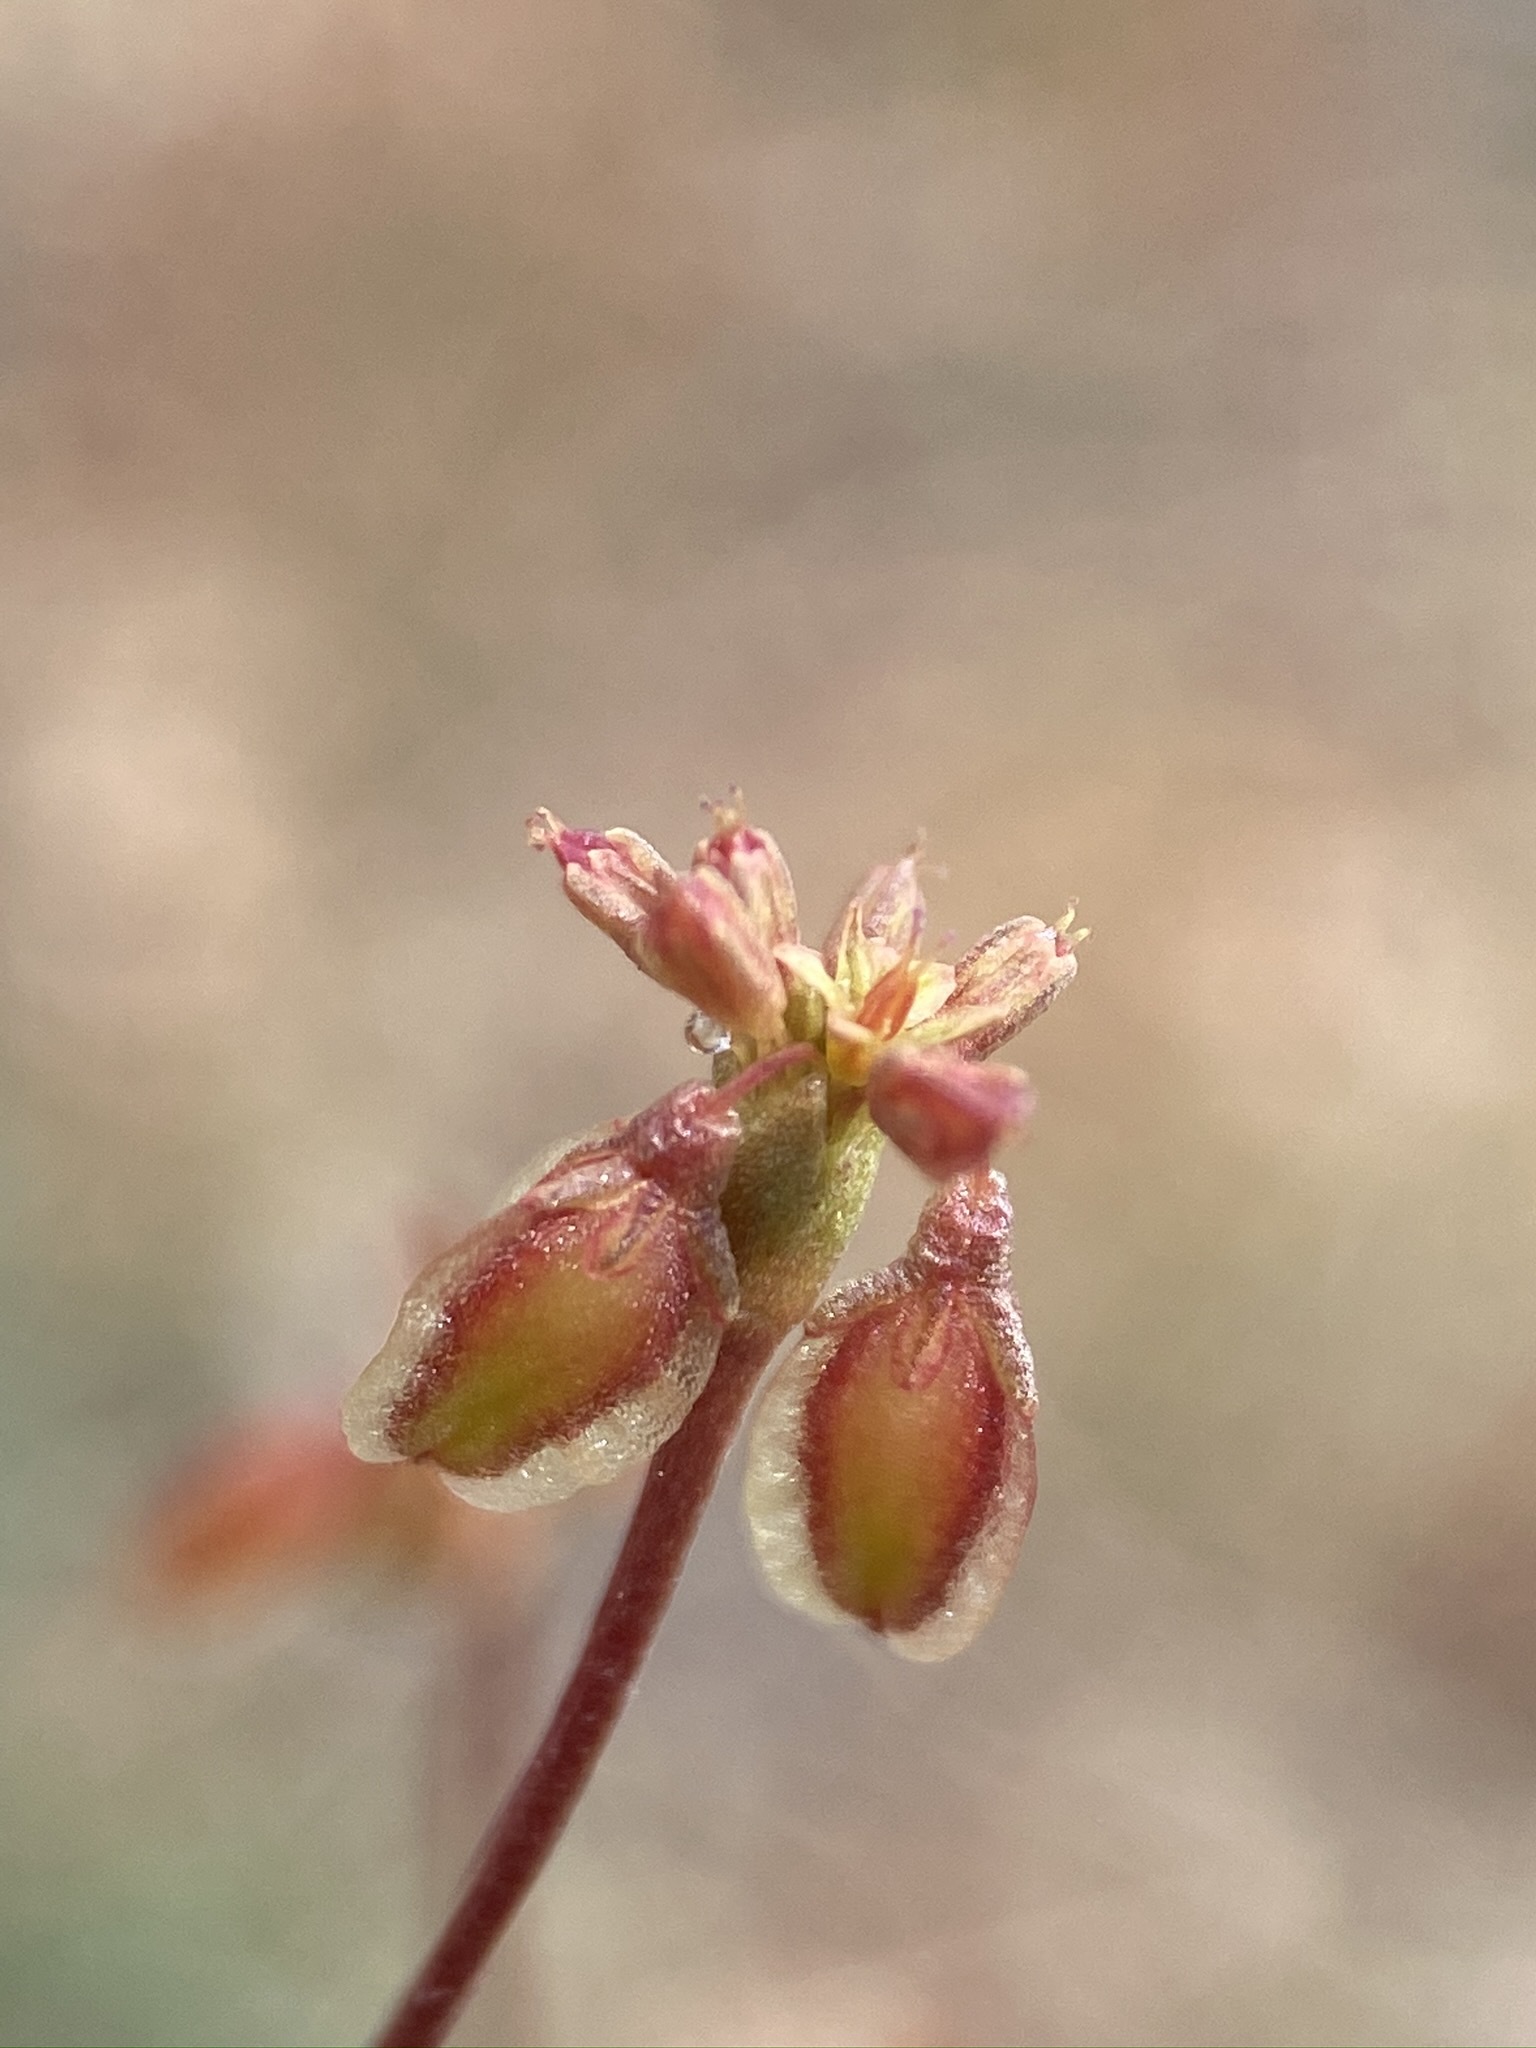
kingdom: Plantae
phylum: Tracheophyta
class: Magnoliopsida
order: Caryophyllales
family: Polygonaceae
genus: Eriogonum
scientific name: Eriogonum alatum
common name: Winged eriogonum
